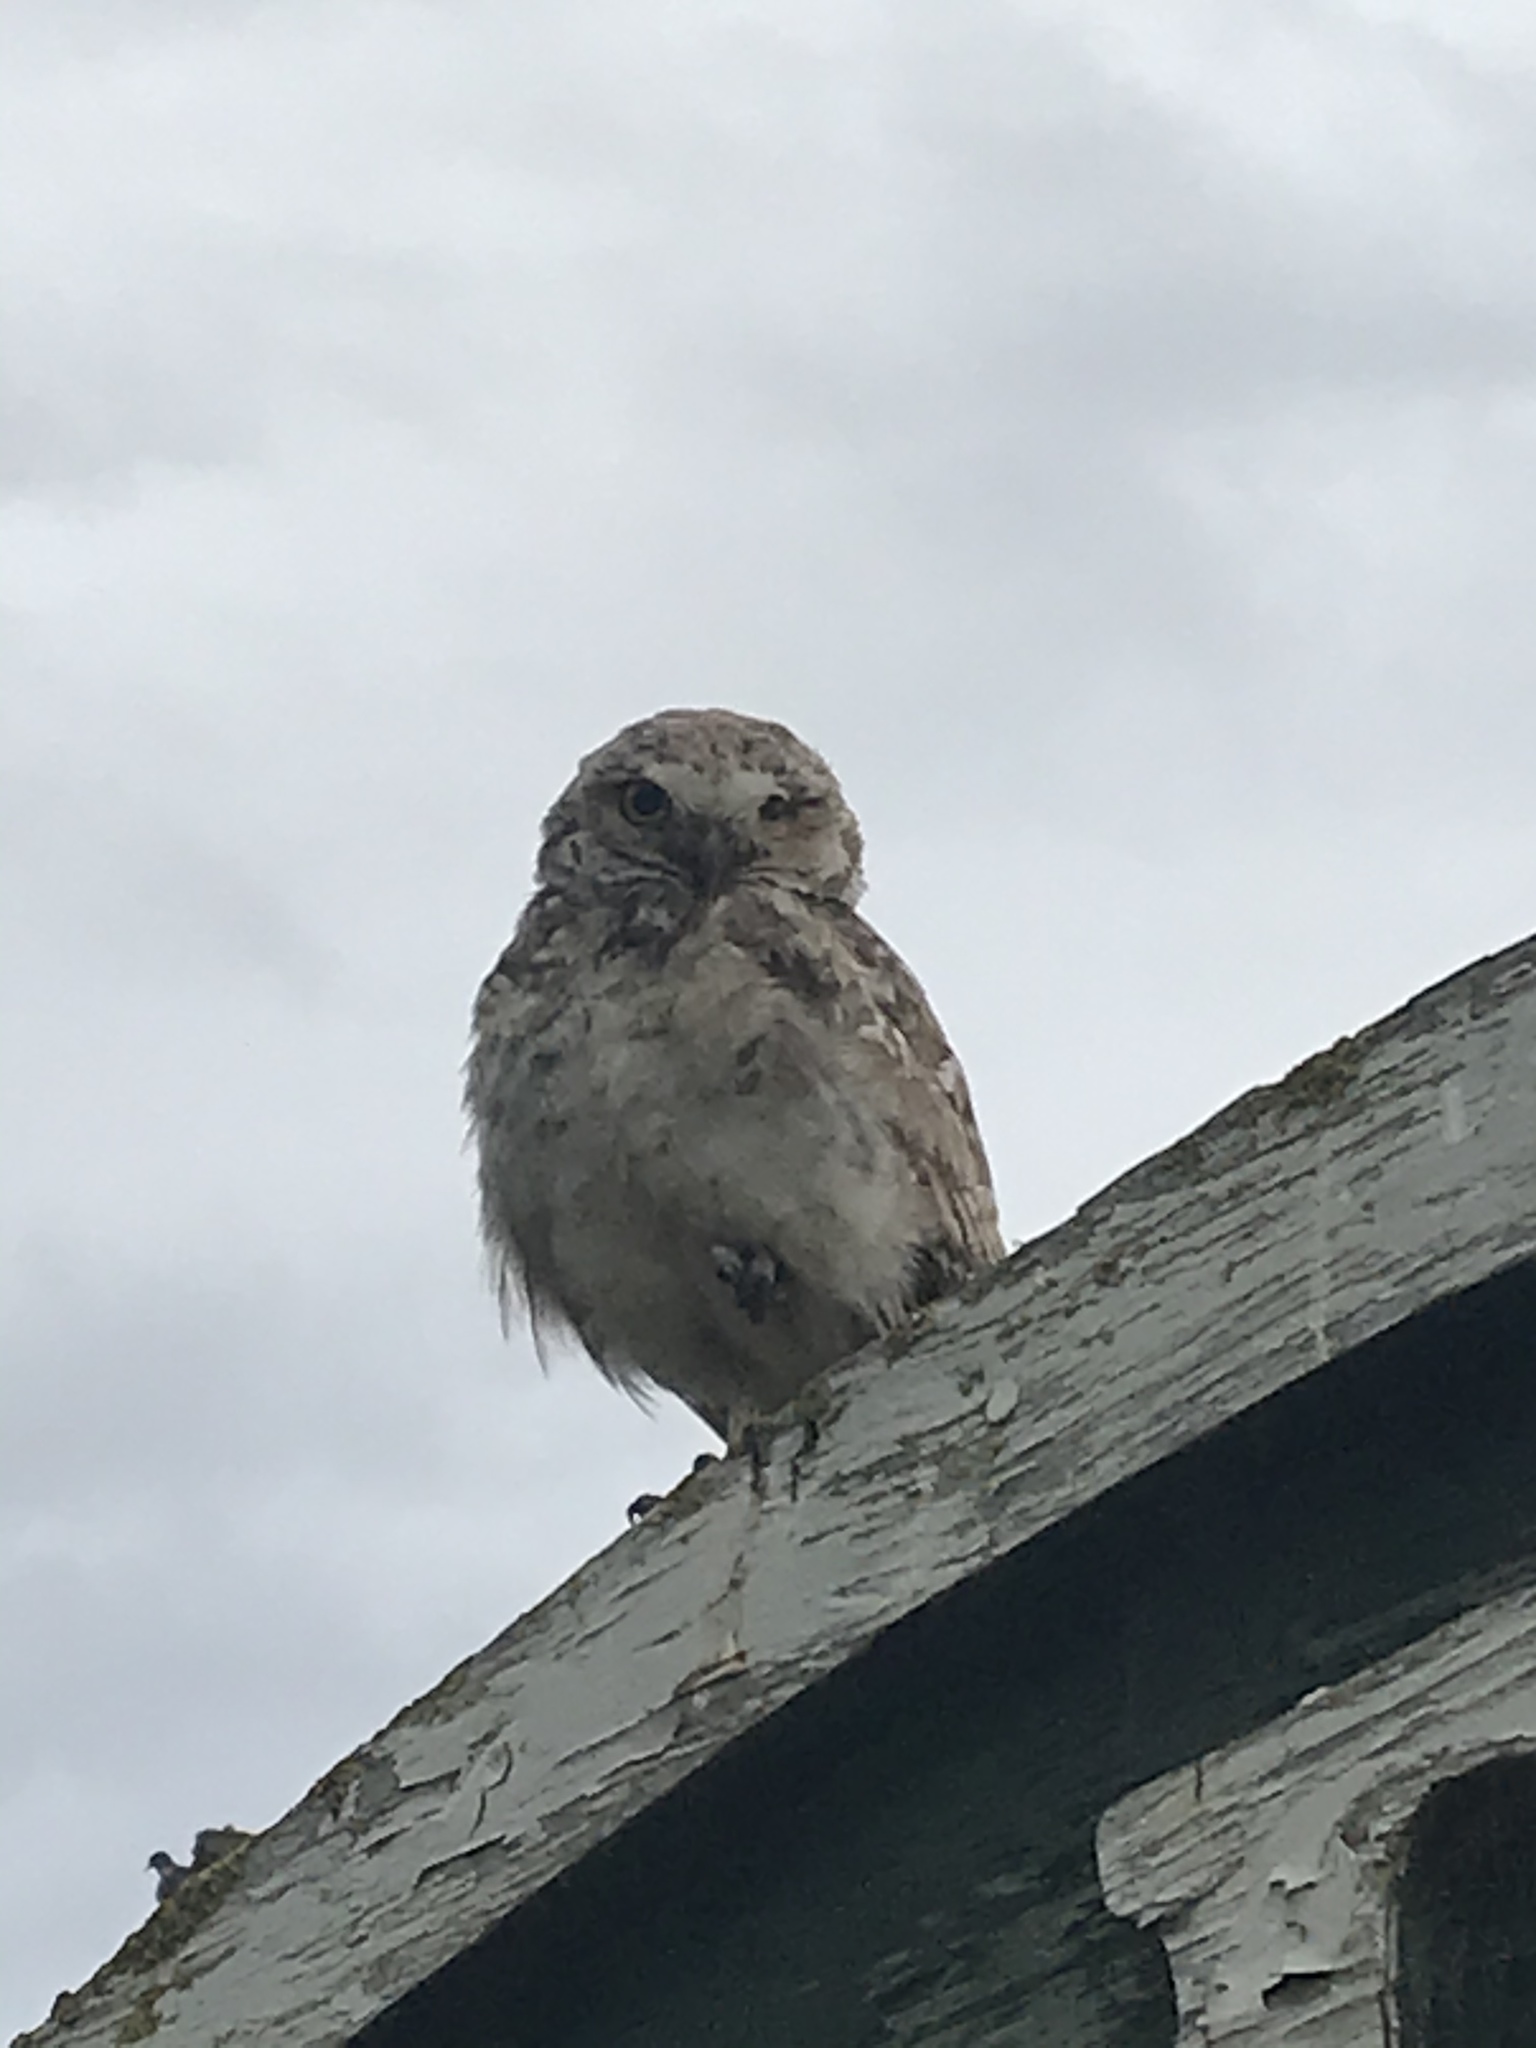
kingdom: Animalia
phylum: Chordata
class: Aves
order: Strigiformes
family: Strigidae
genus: Athene
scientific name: Athene cunicularia
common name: Burrowing owl
